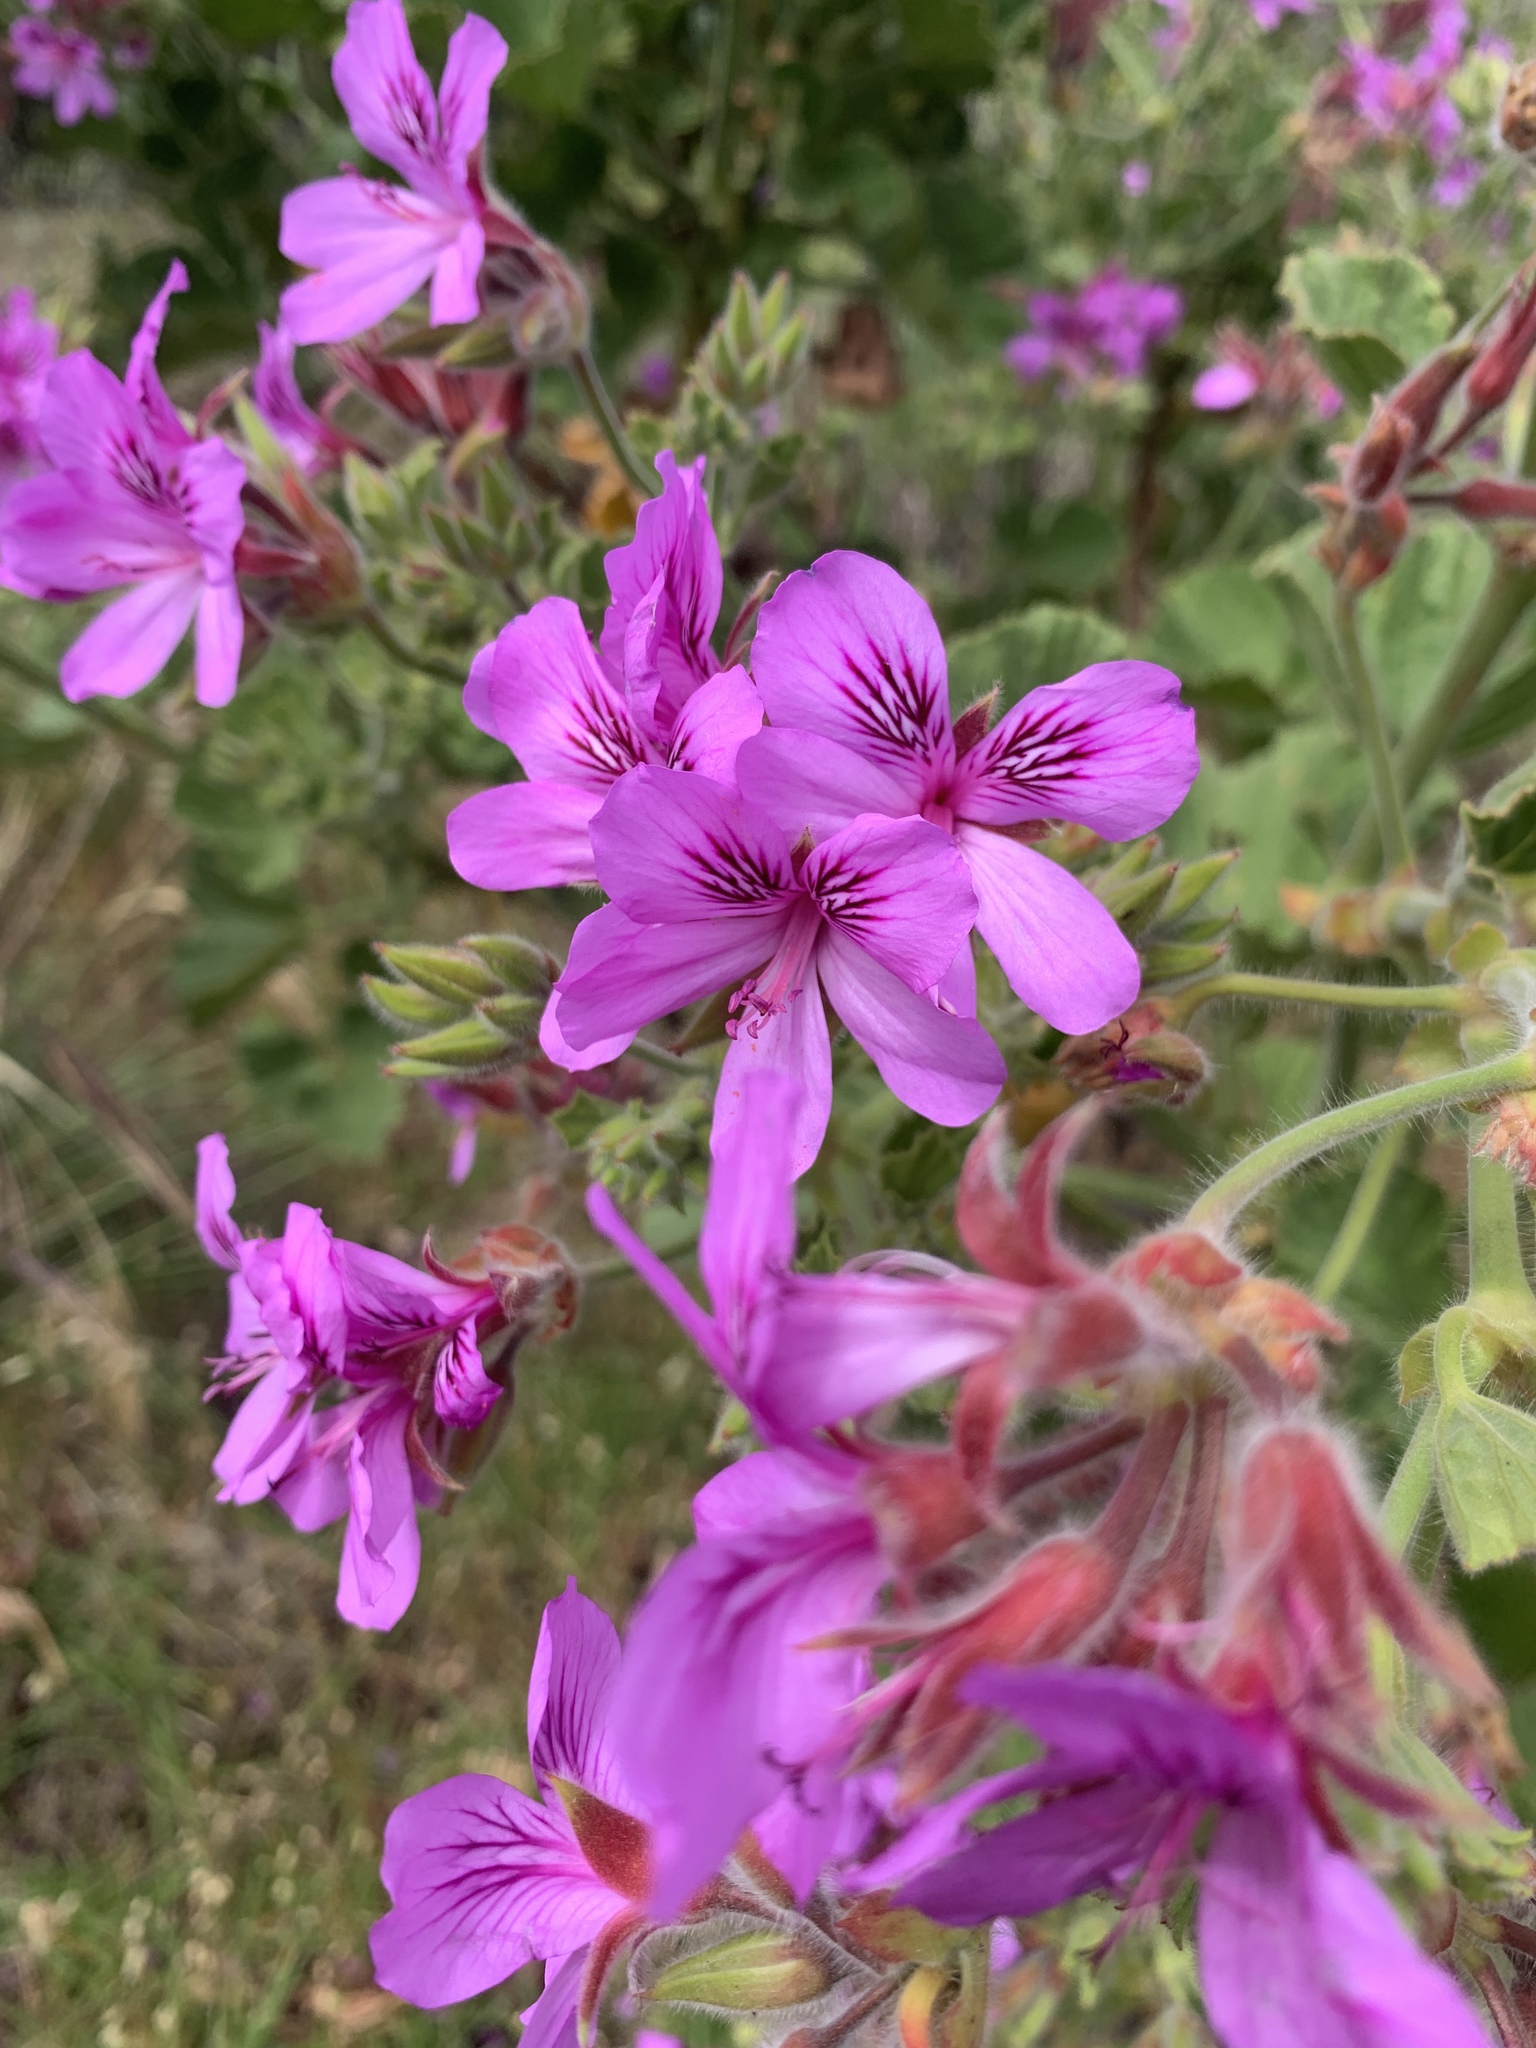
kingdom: Plantae
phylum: Tracheophyta
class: Magnoliopsida
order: Geraniales
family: Geraniaceae
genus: Pelargonium
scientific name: Pelargonium cucullatum
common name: Tree pelargonium
